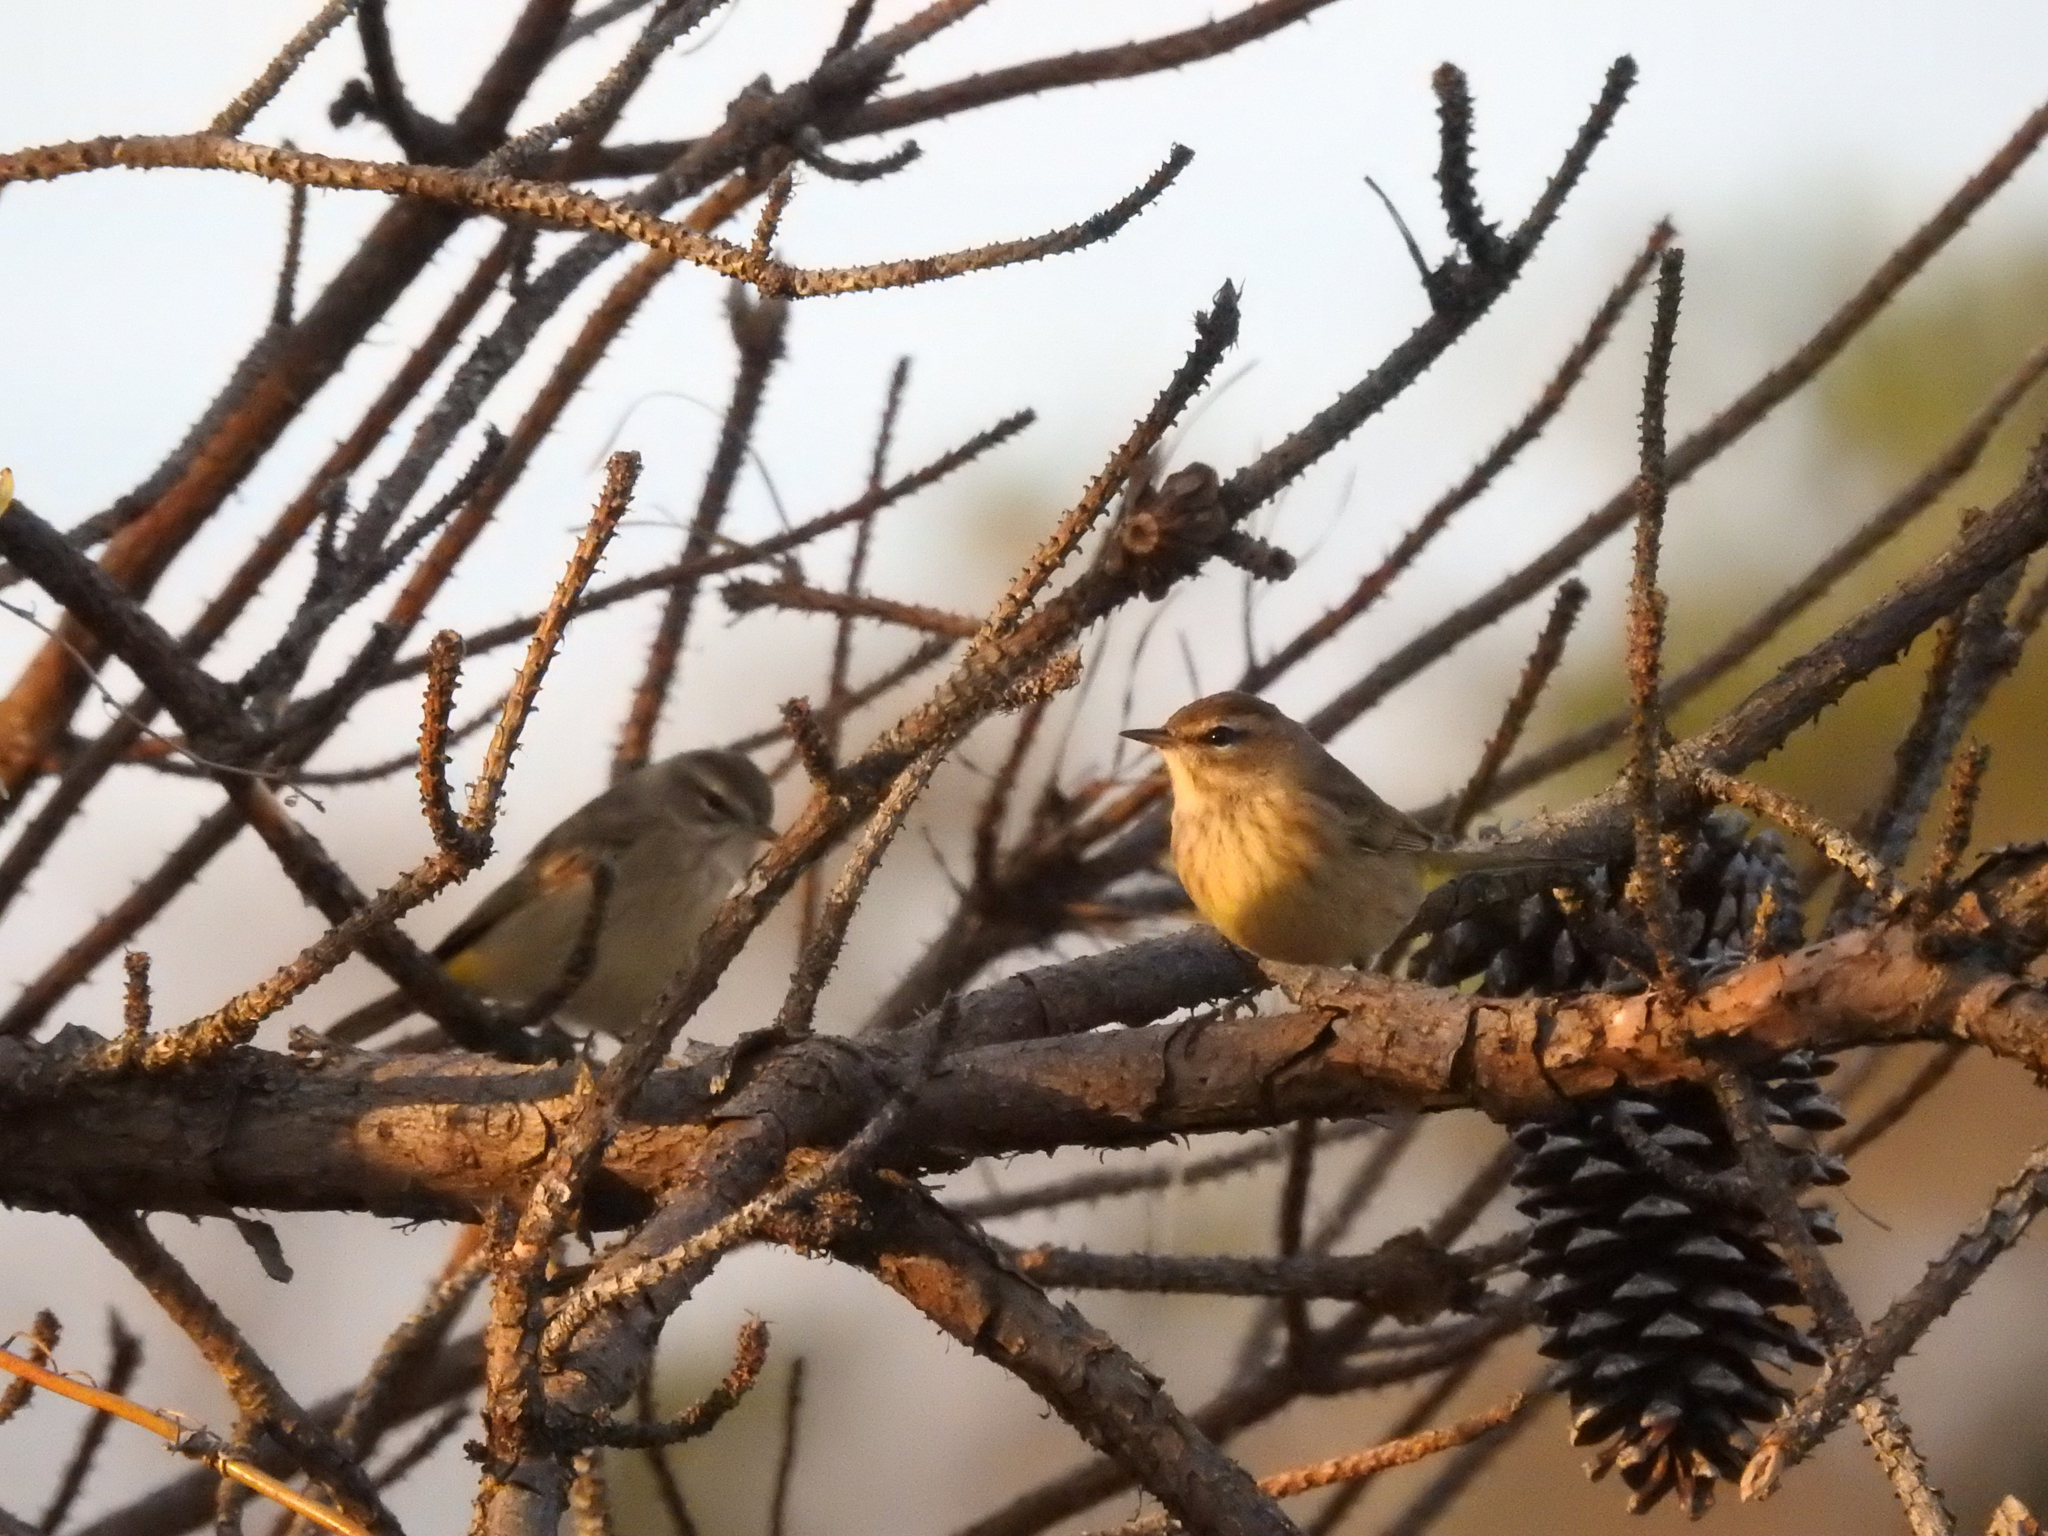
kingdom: Animalia
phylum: Chordata
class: Aves
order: Passeriformes
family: Parulidae
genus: Setophaga
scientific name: Setophaga palmarum
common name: Palm warbler
